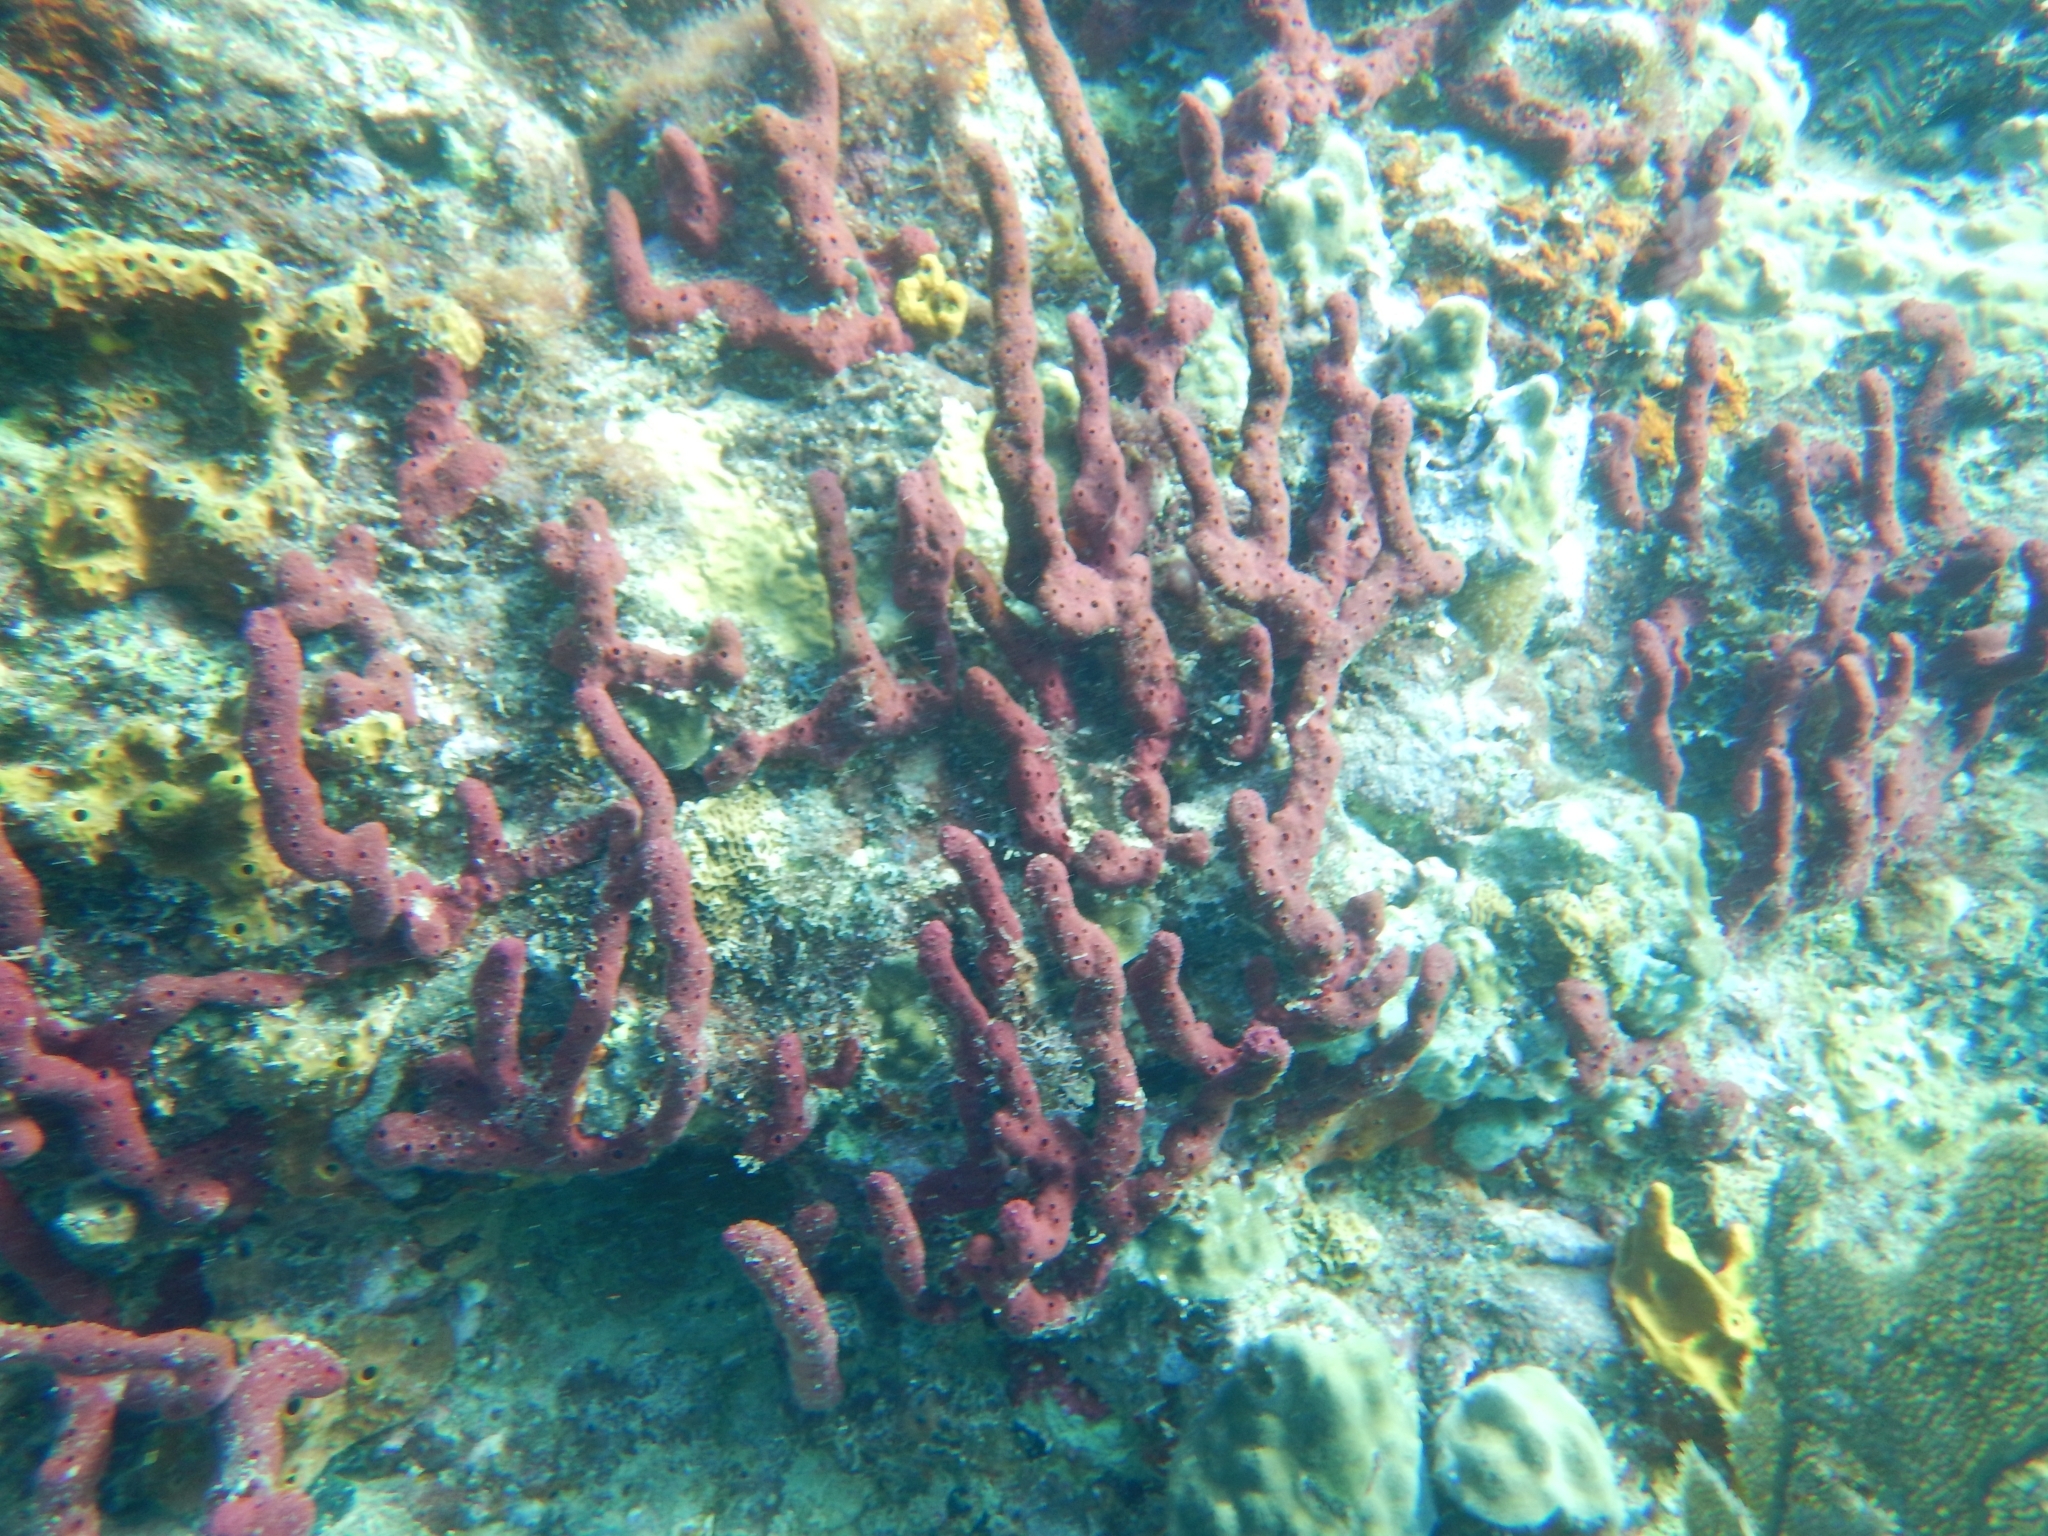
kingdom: Animalia
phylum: Porifera
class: Demospongiae
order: Haplosclerida
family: Niphatidae
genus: Amphimedon
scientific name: Amphimedon compressa
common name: Red sponge
